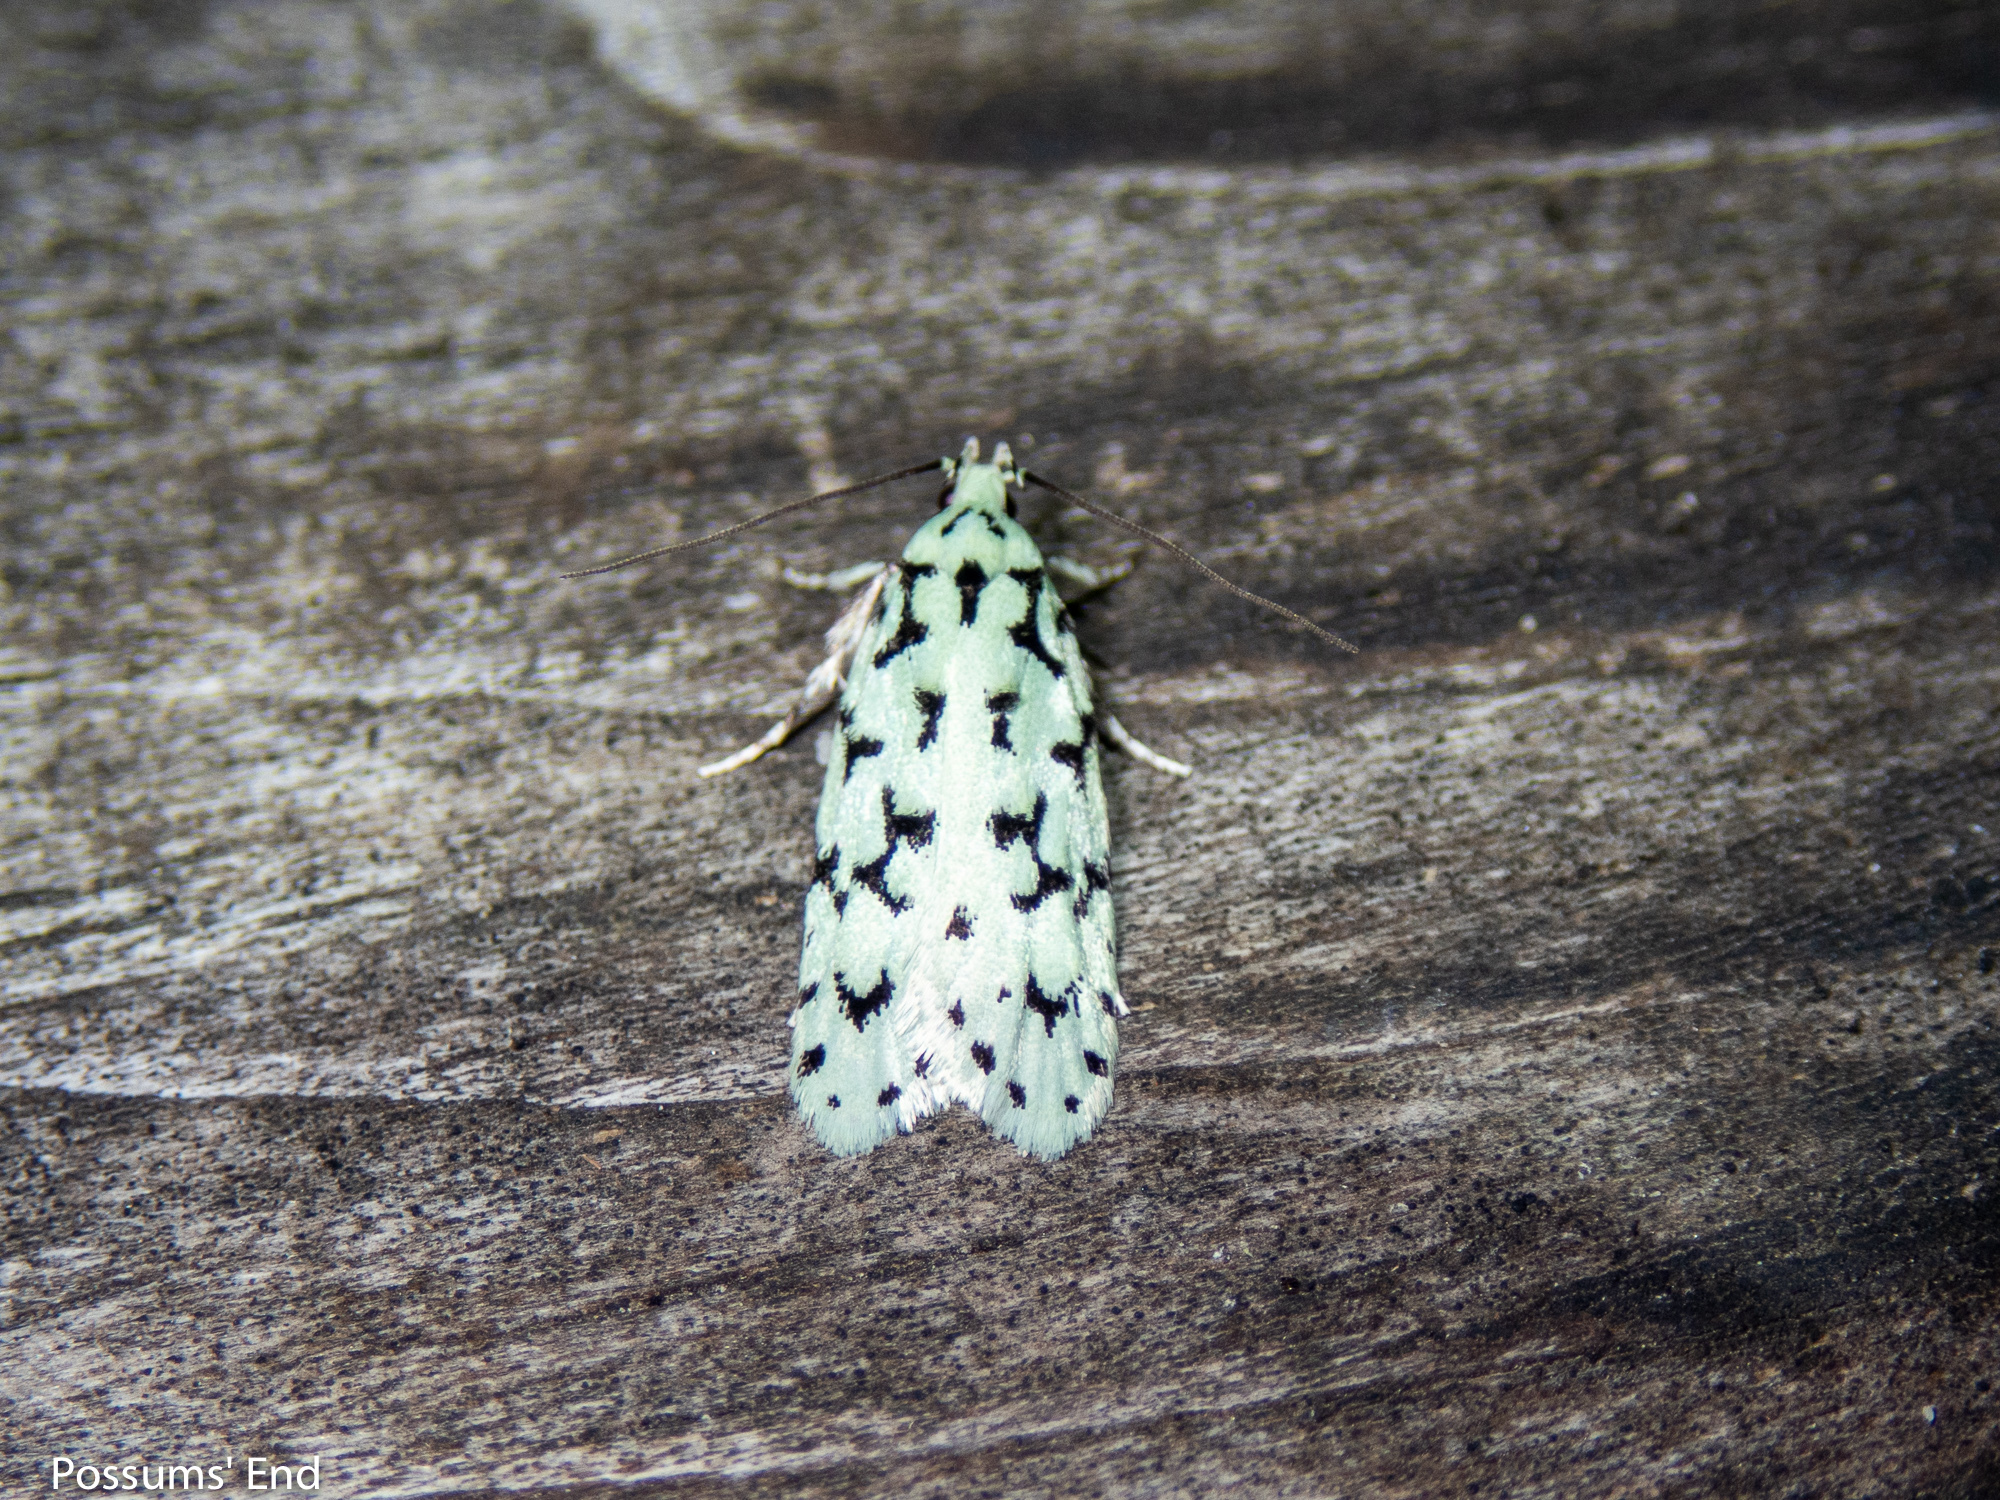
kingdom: Animalia
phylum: Arthropoda
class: Insecta
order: Lepidoptera
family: Oecophoridae
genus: Izatha
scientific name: Izatha huttoni
